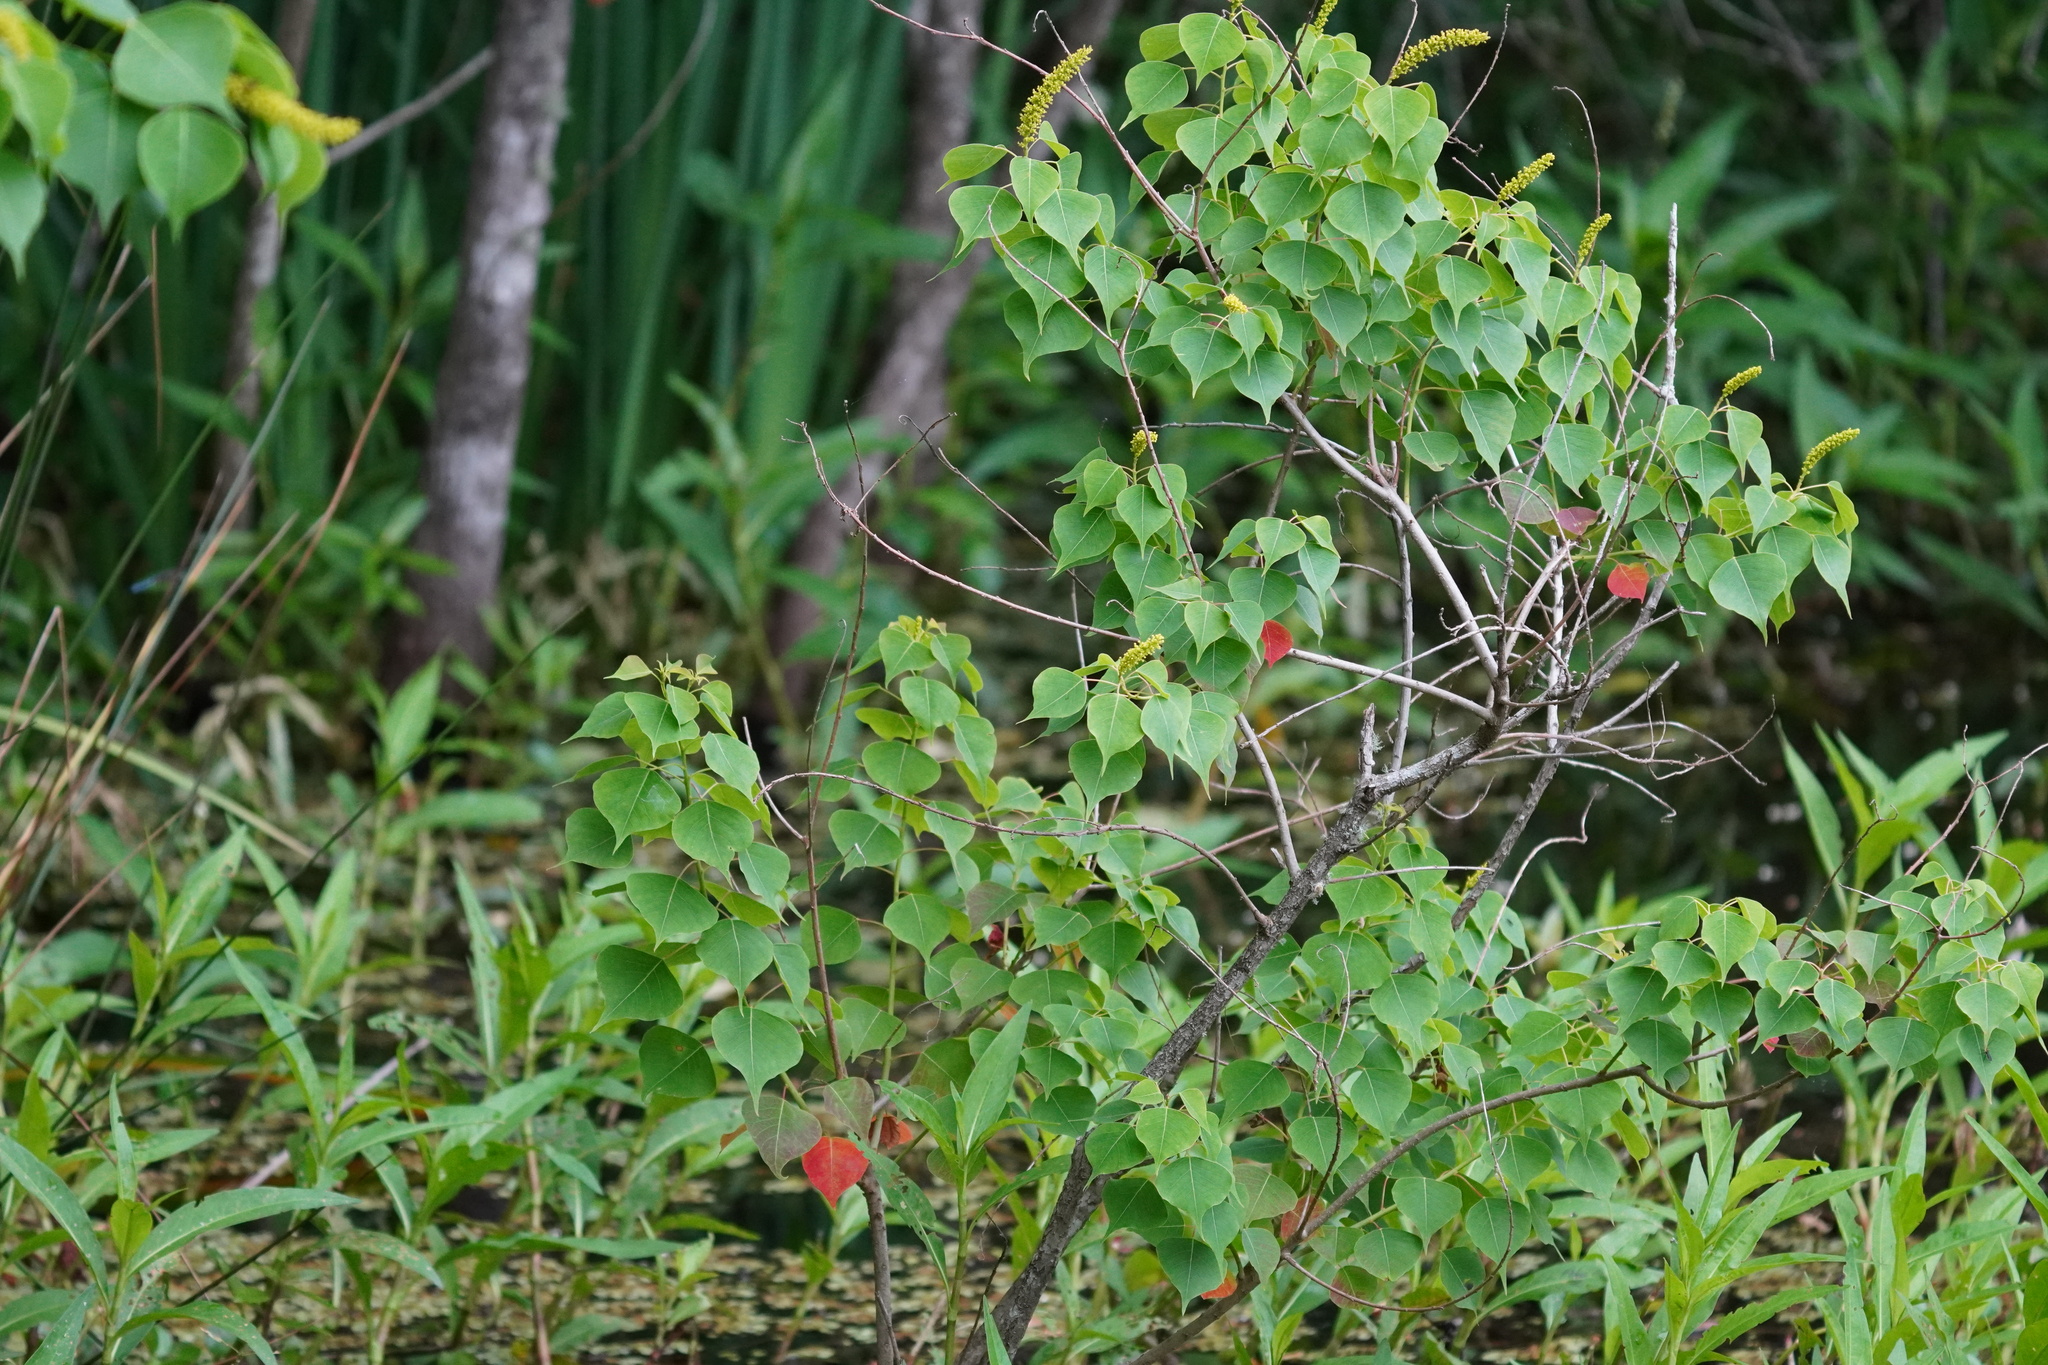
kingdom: Plantae
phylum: Tracheophyta
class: Magnoliopsida
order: Malpighiales
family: Euphorbiaceae
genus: Triadica
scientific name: Triadica sebifera
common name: Chinese tallow
